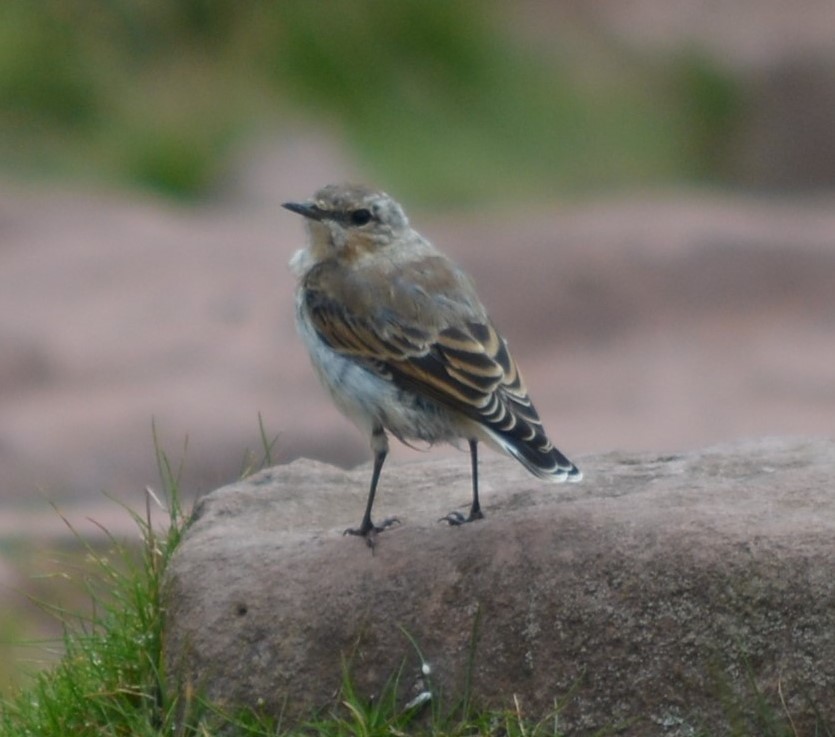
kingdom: Animalia
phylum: Chordata
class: Aves
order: Passeriformes
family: Muscicapidae
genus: Oenanthe
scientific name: Oenanthe oenanthe
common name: Northern wheatear
